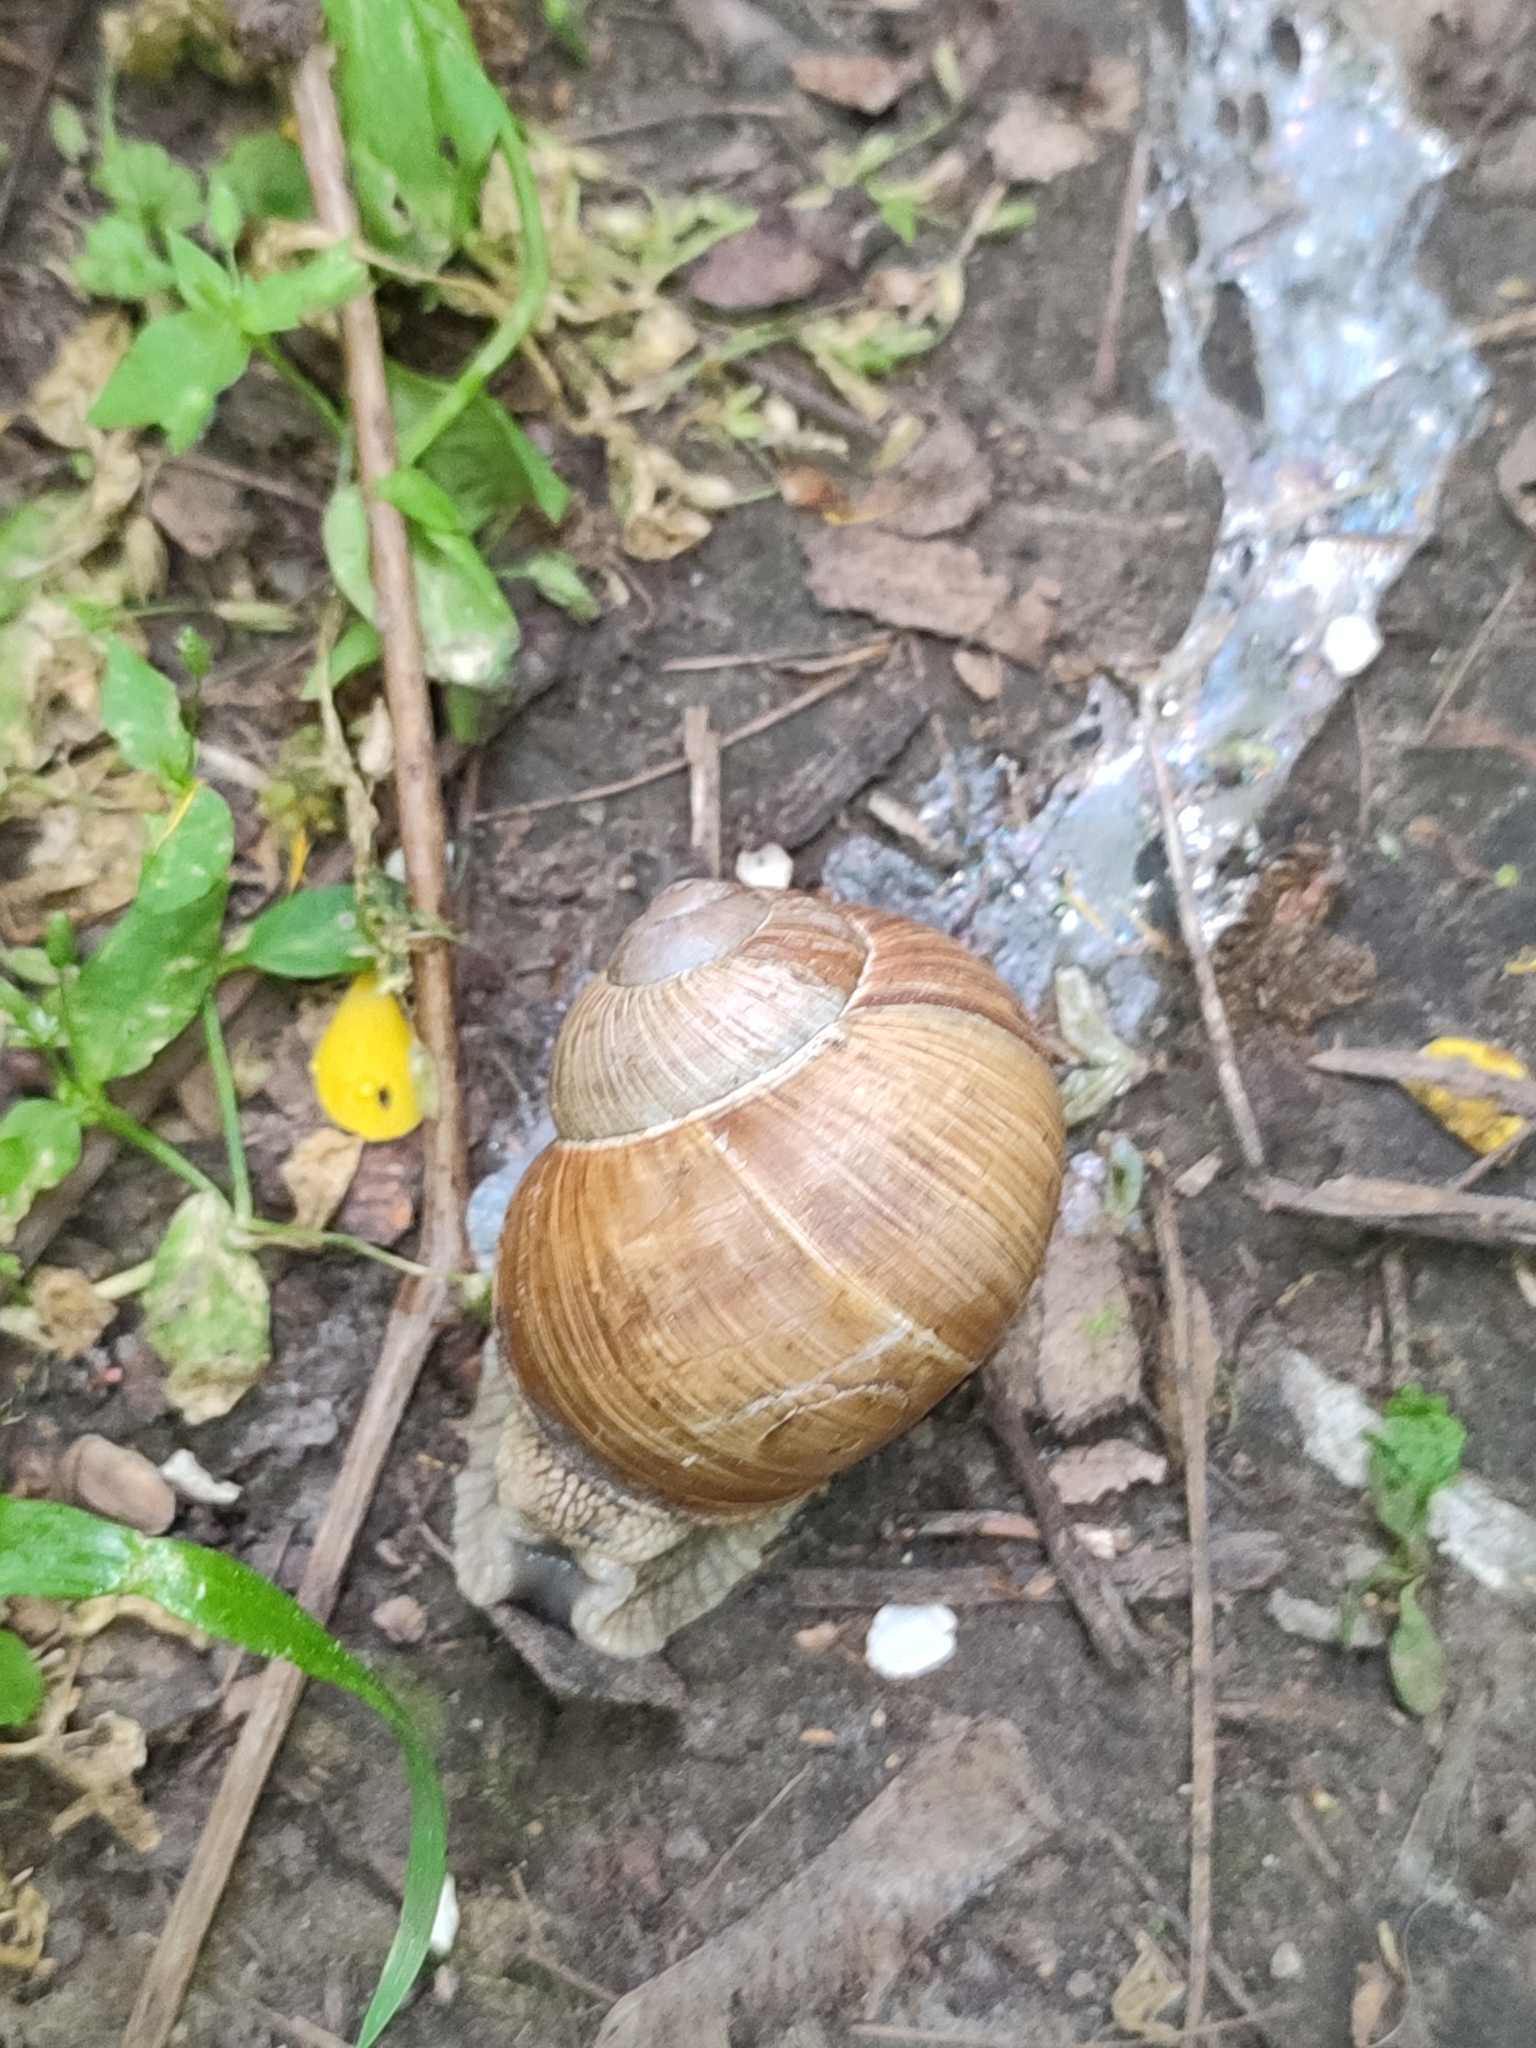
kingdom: Animalia
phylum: Mollusca
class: Gastropoda
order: Stylommatophora
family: Helicidae
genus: Helix
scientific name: Helix pomatia
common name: Roman snail
